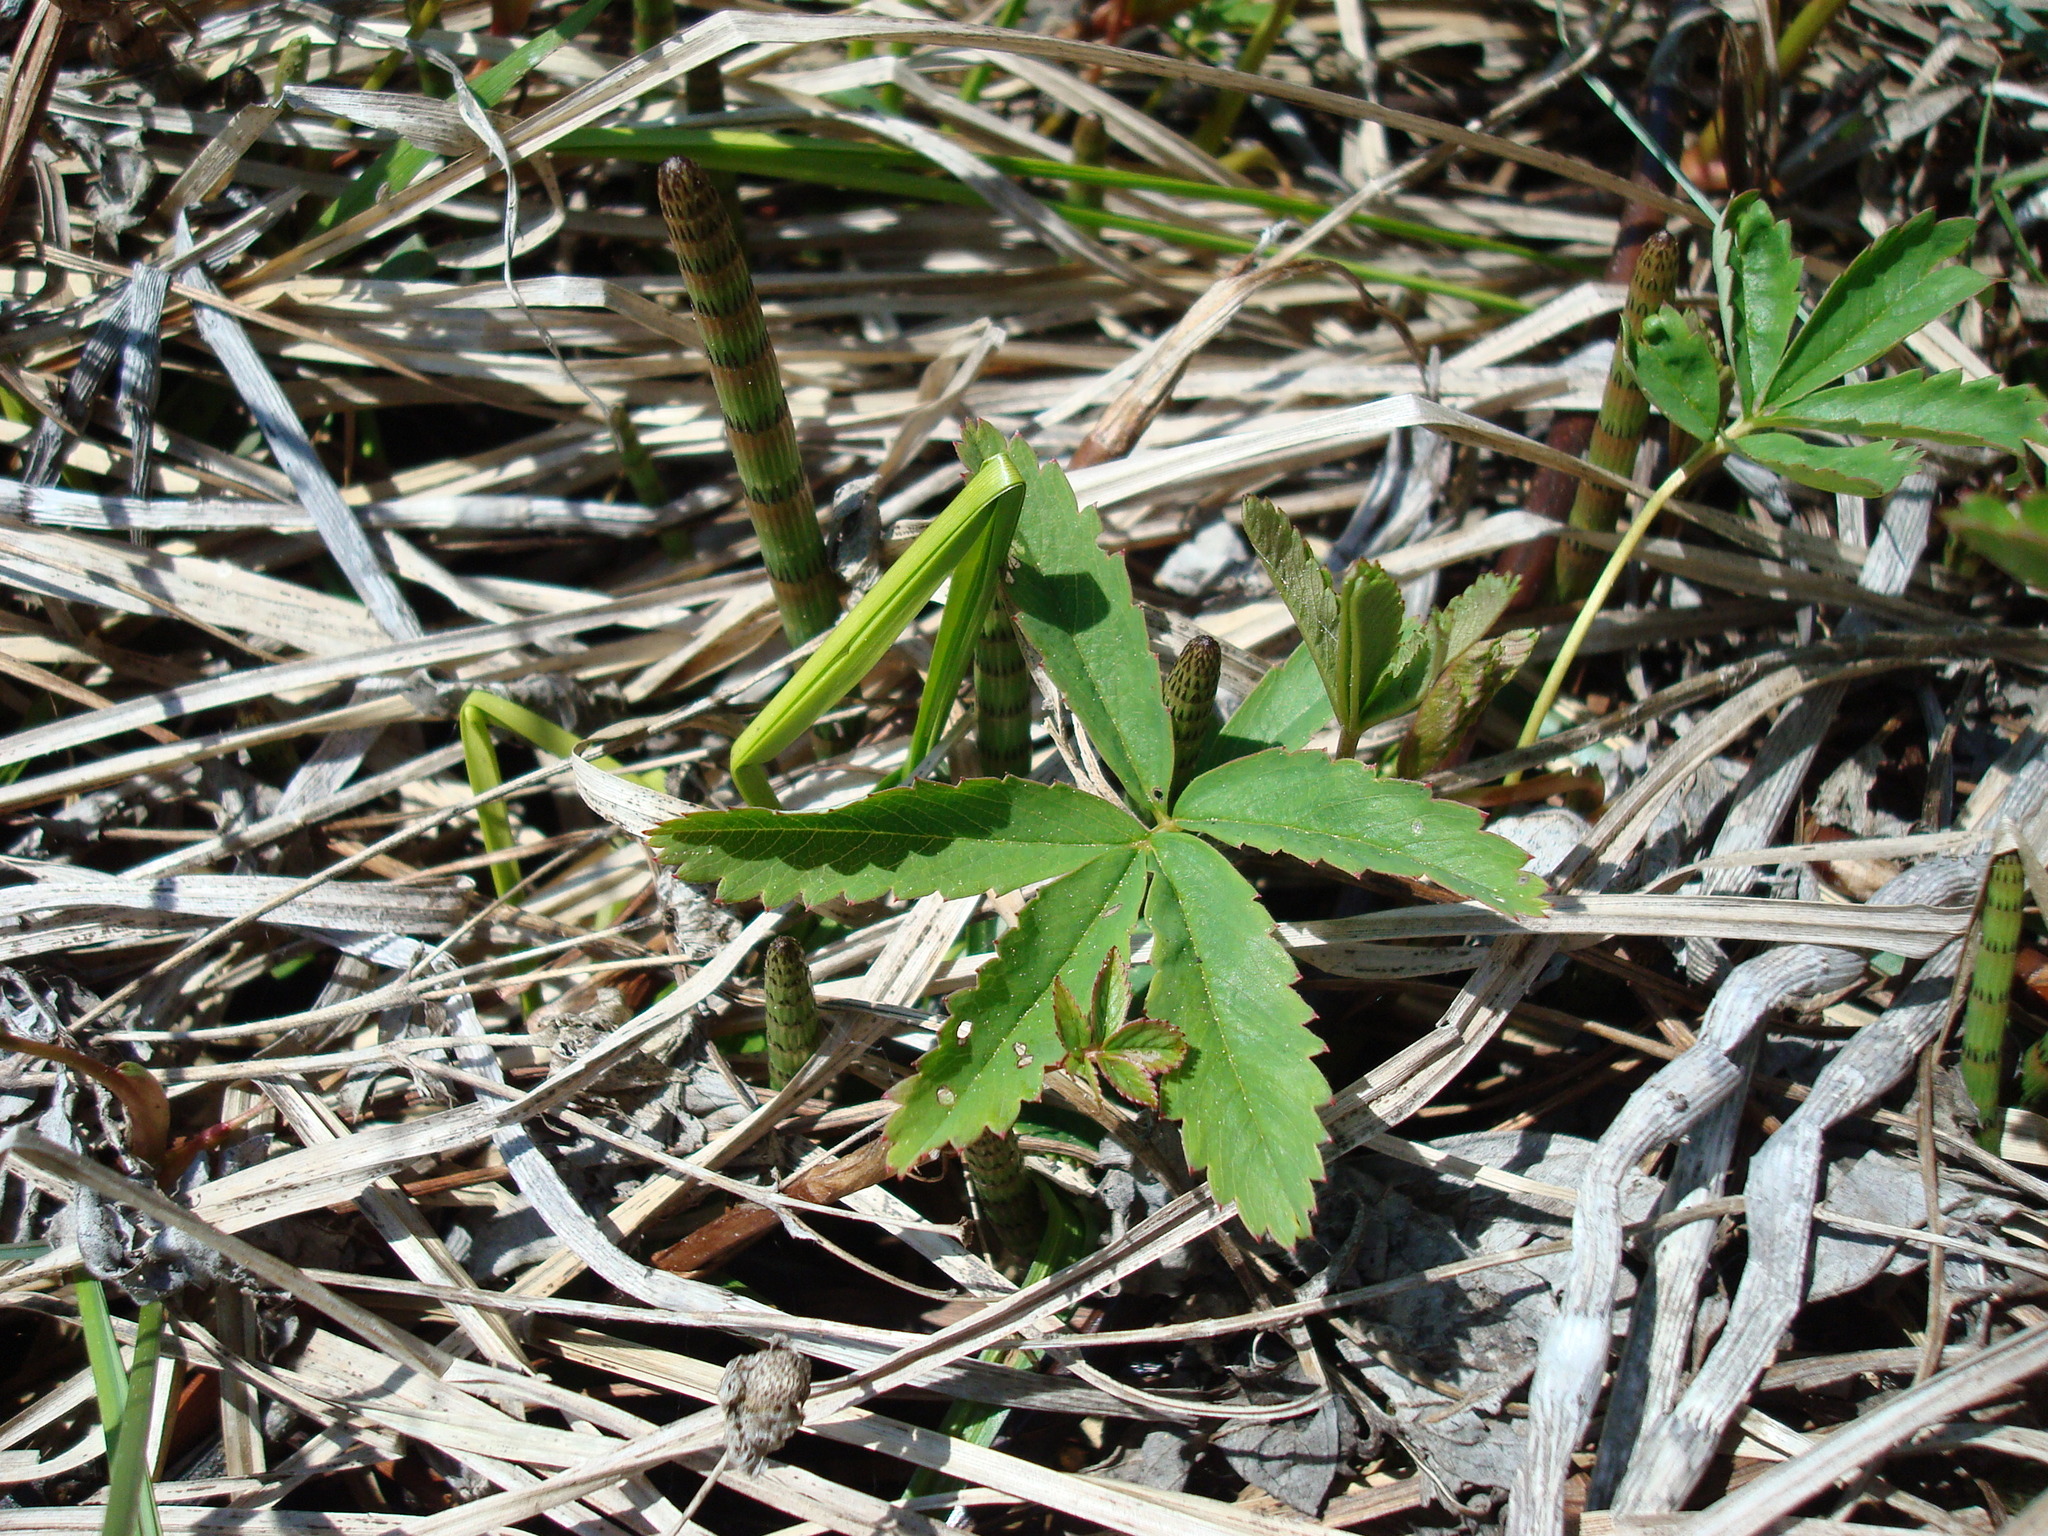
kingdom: Plantae
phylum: Tracheophyta
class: Magnoliopsida
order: Rosales
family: Rosaceae
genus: Comarum
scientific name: Comarum palustre
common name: Marsh cinquefoil
